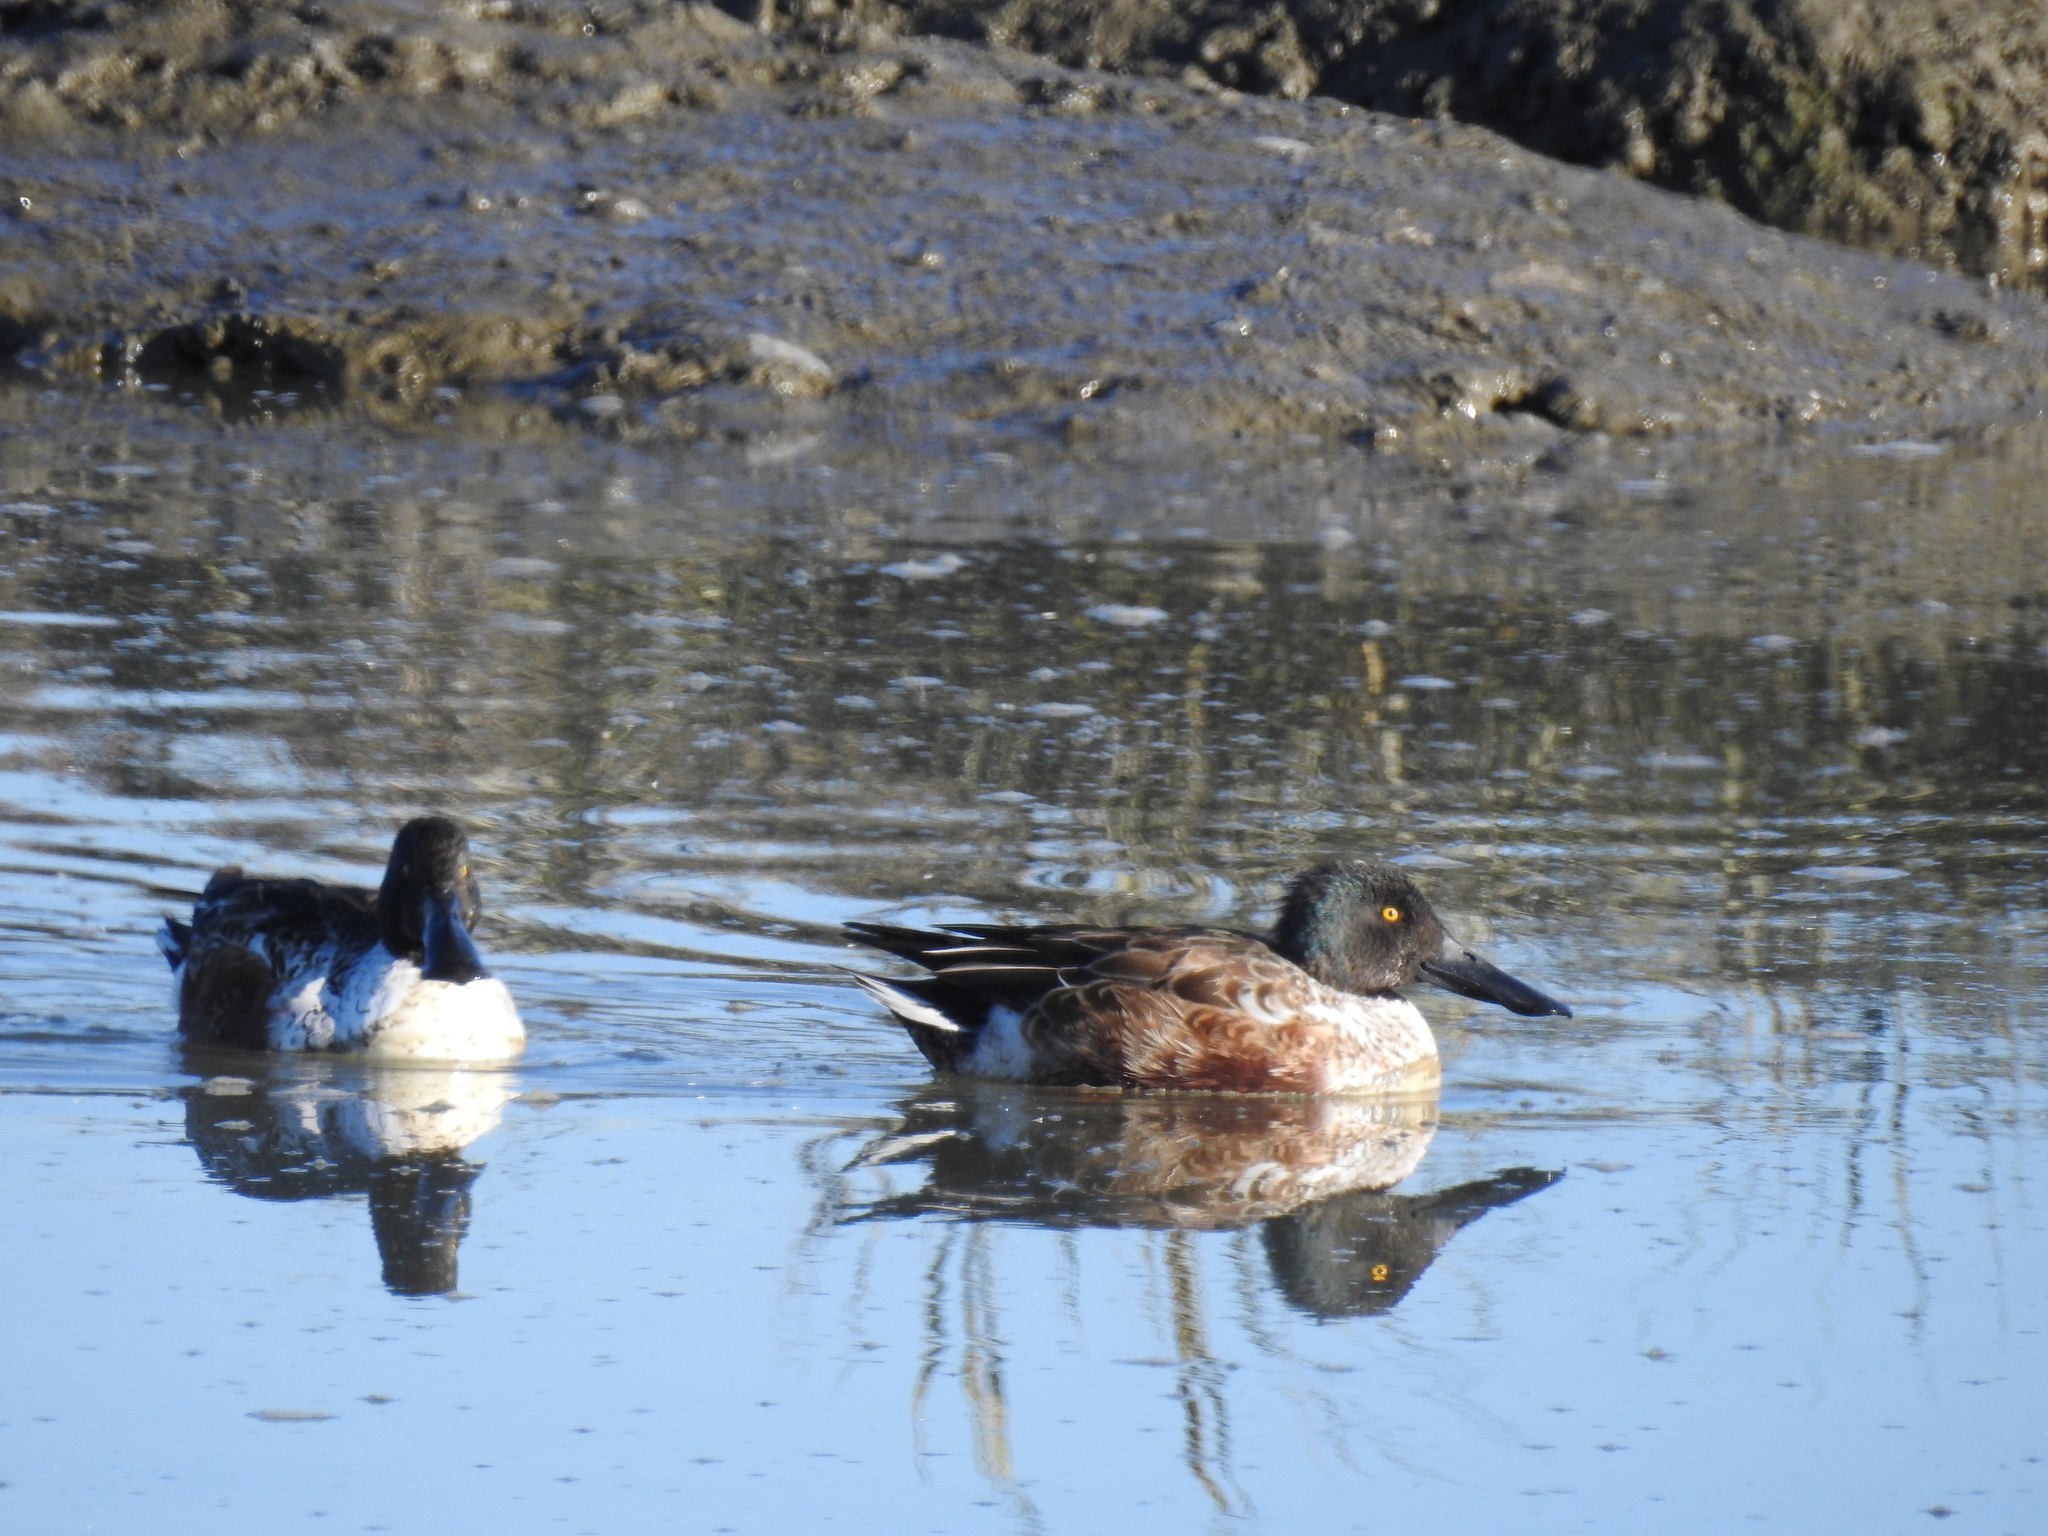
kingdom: Animalia
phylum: Chordata
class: Aves
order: Anseriformes
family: Anatidae
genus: Spatula
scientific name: Spatula clypeata
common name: Northern shoveler
